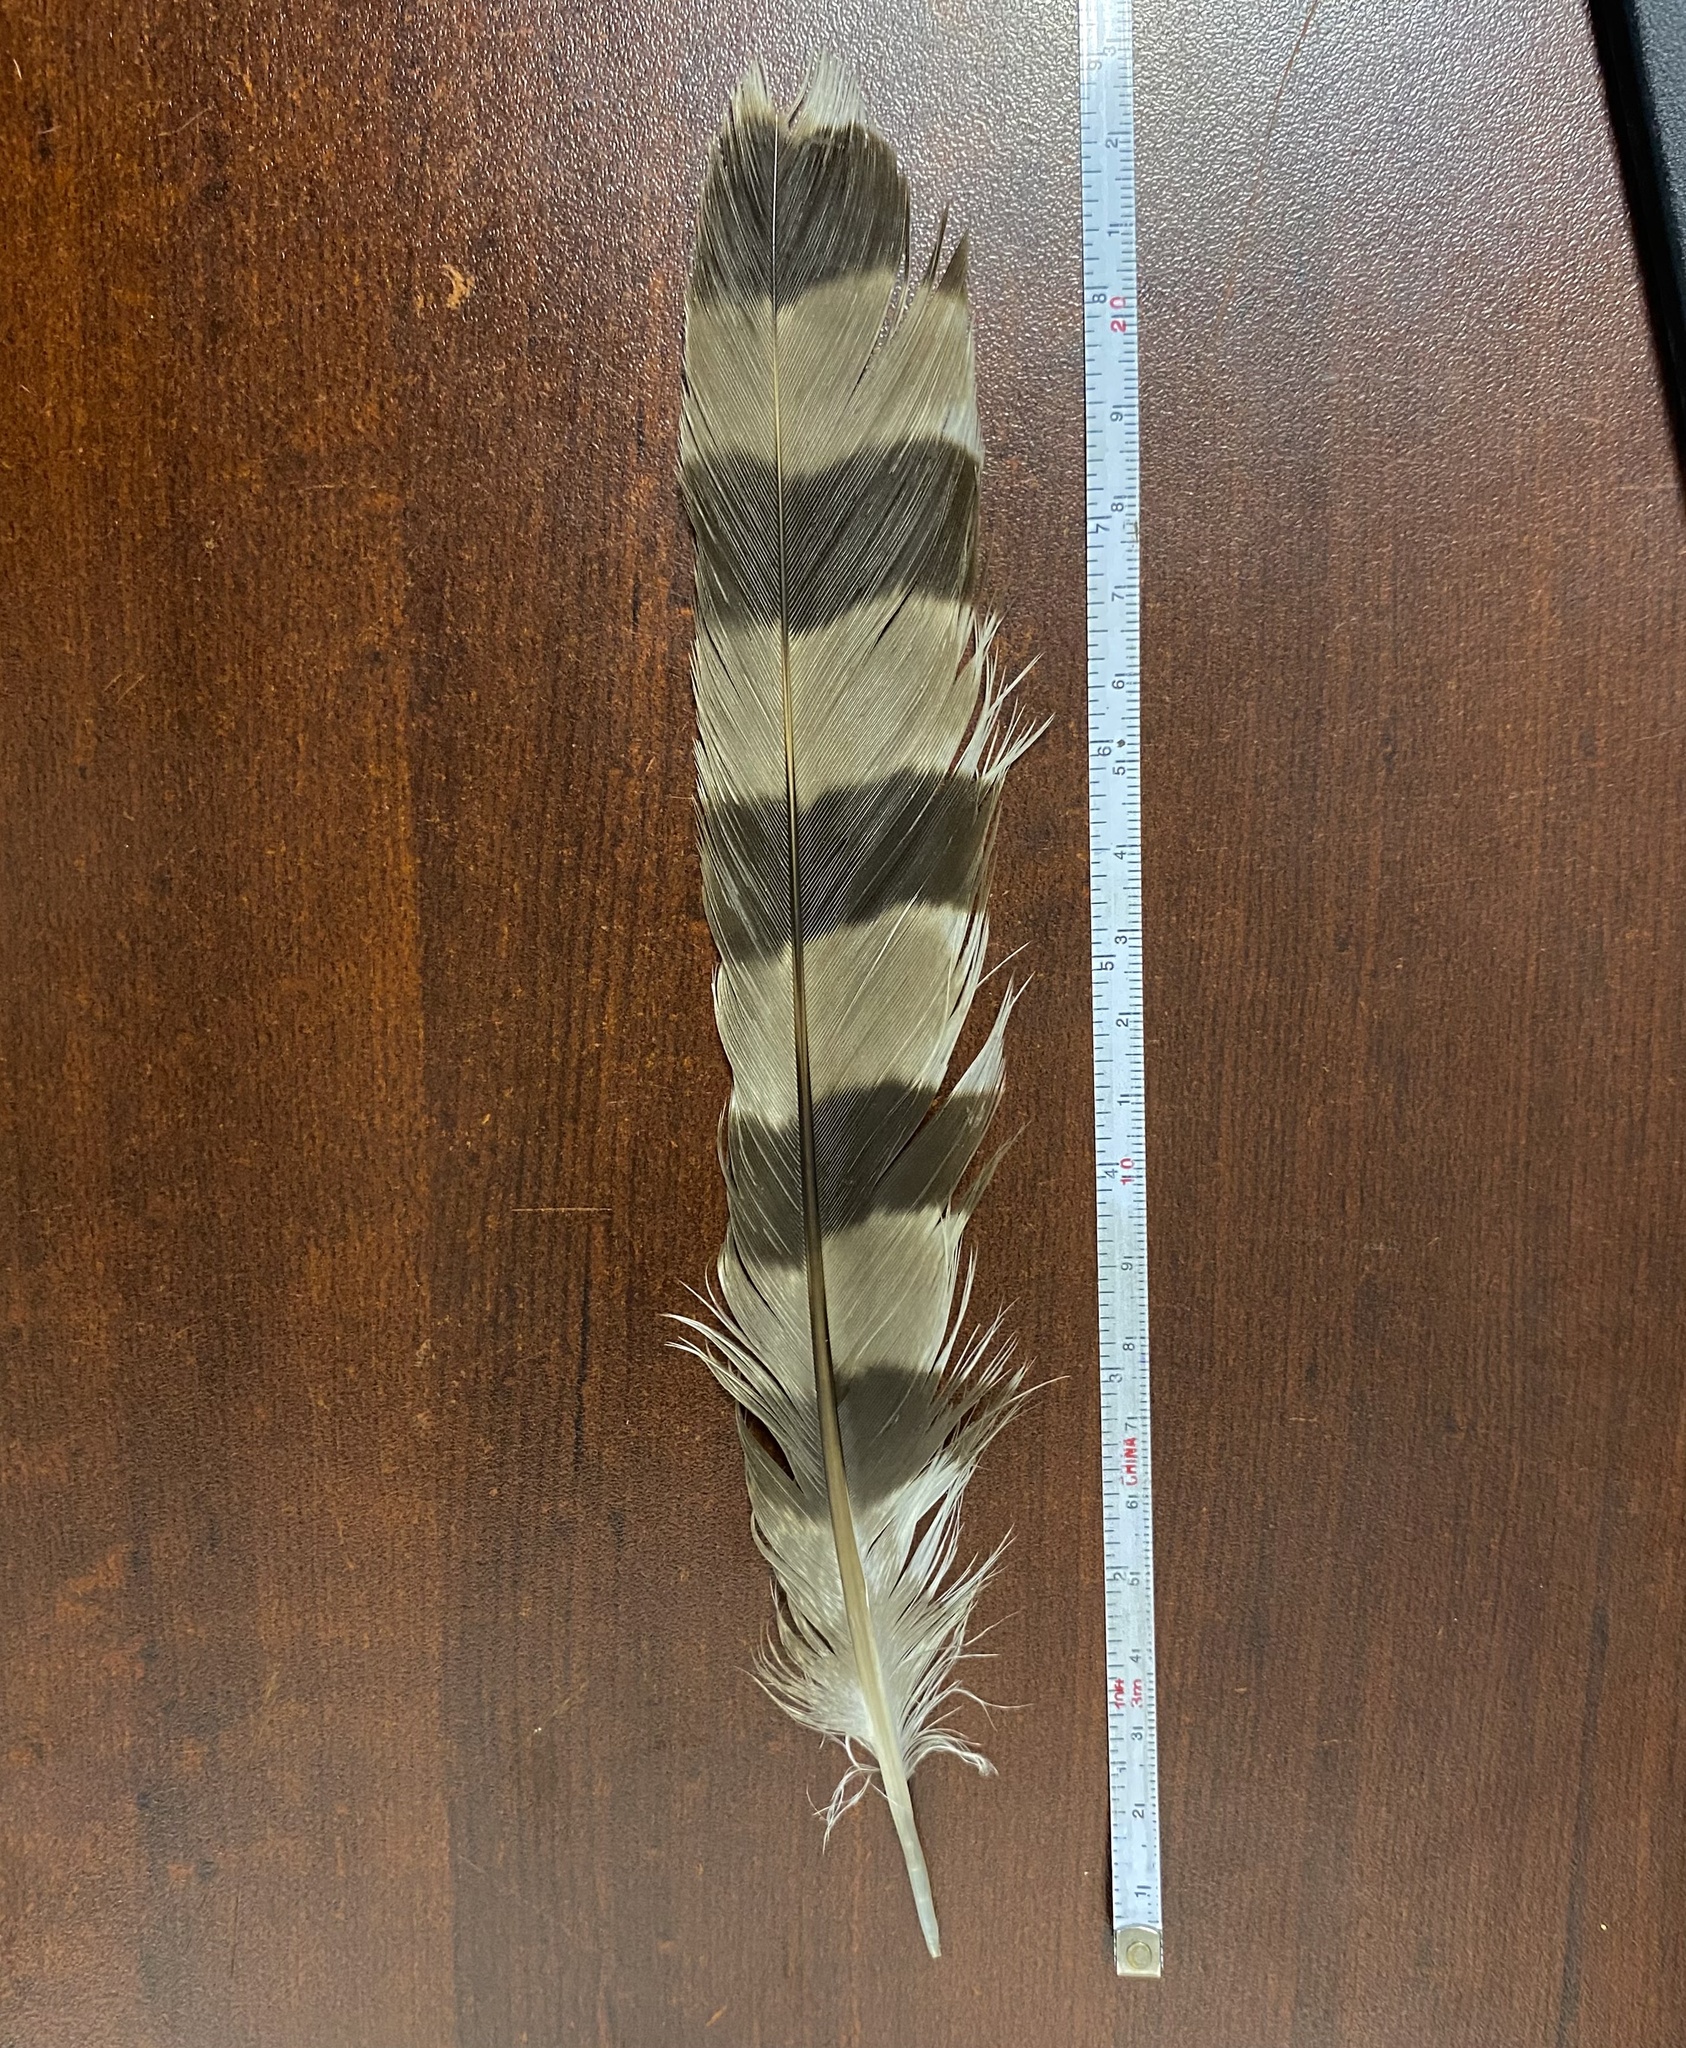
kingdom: Animalia
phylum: Chordata
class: Aves
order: Accipitriformes
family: Accipitridae
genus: Accipiter
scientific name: Accipiter cooperii
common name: Cooper's hawk
